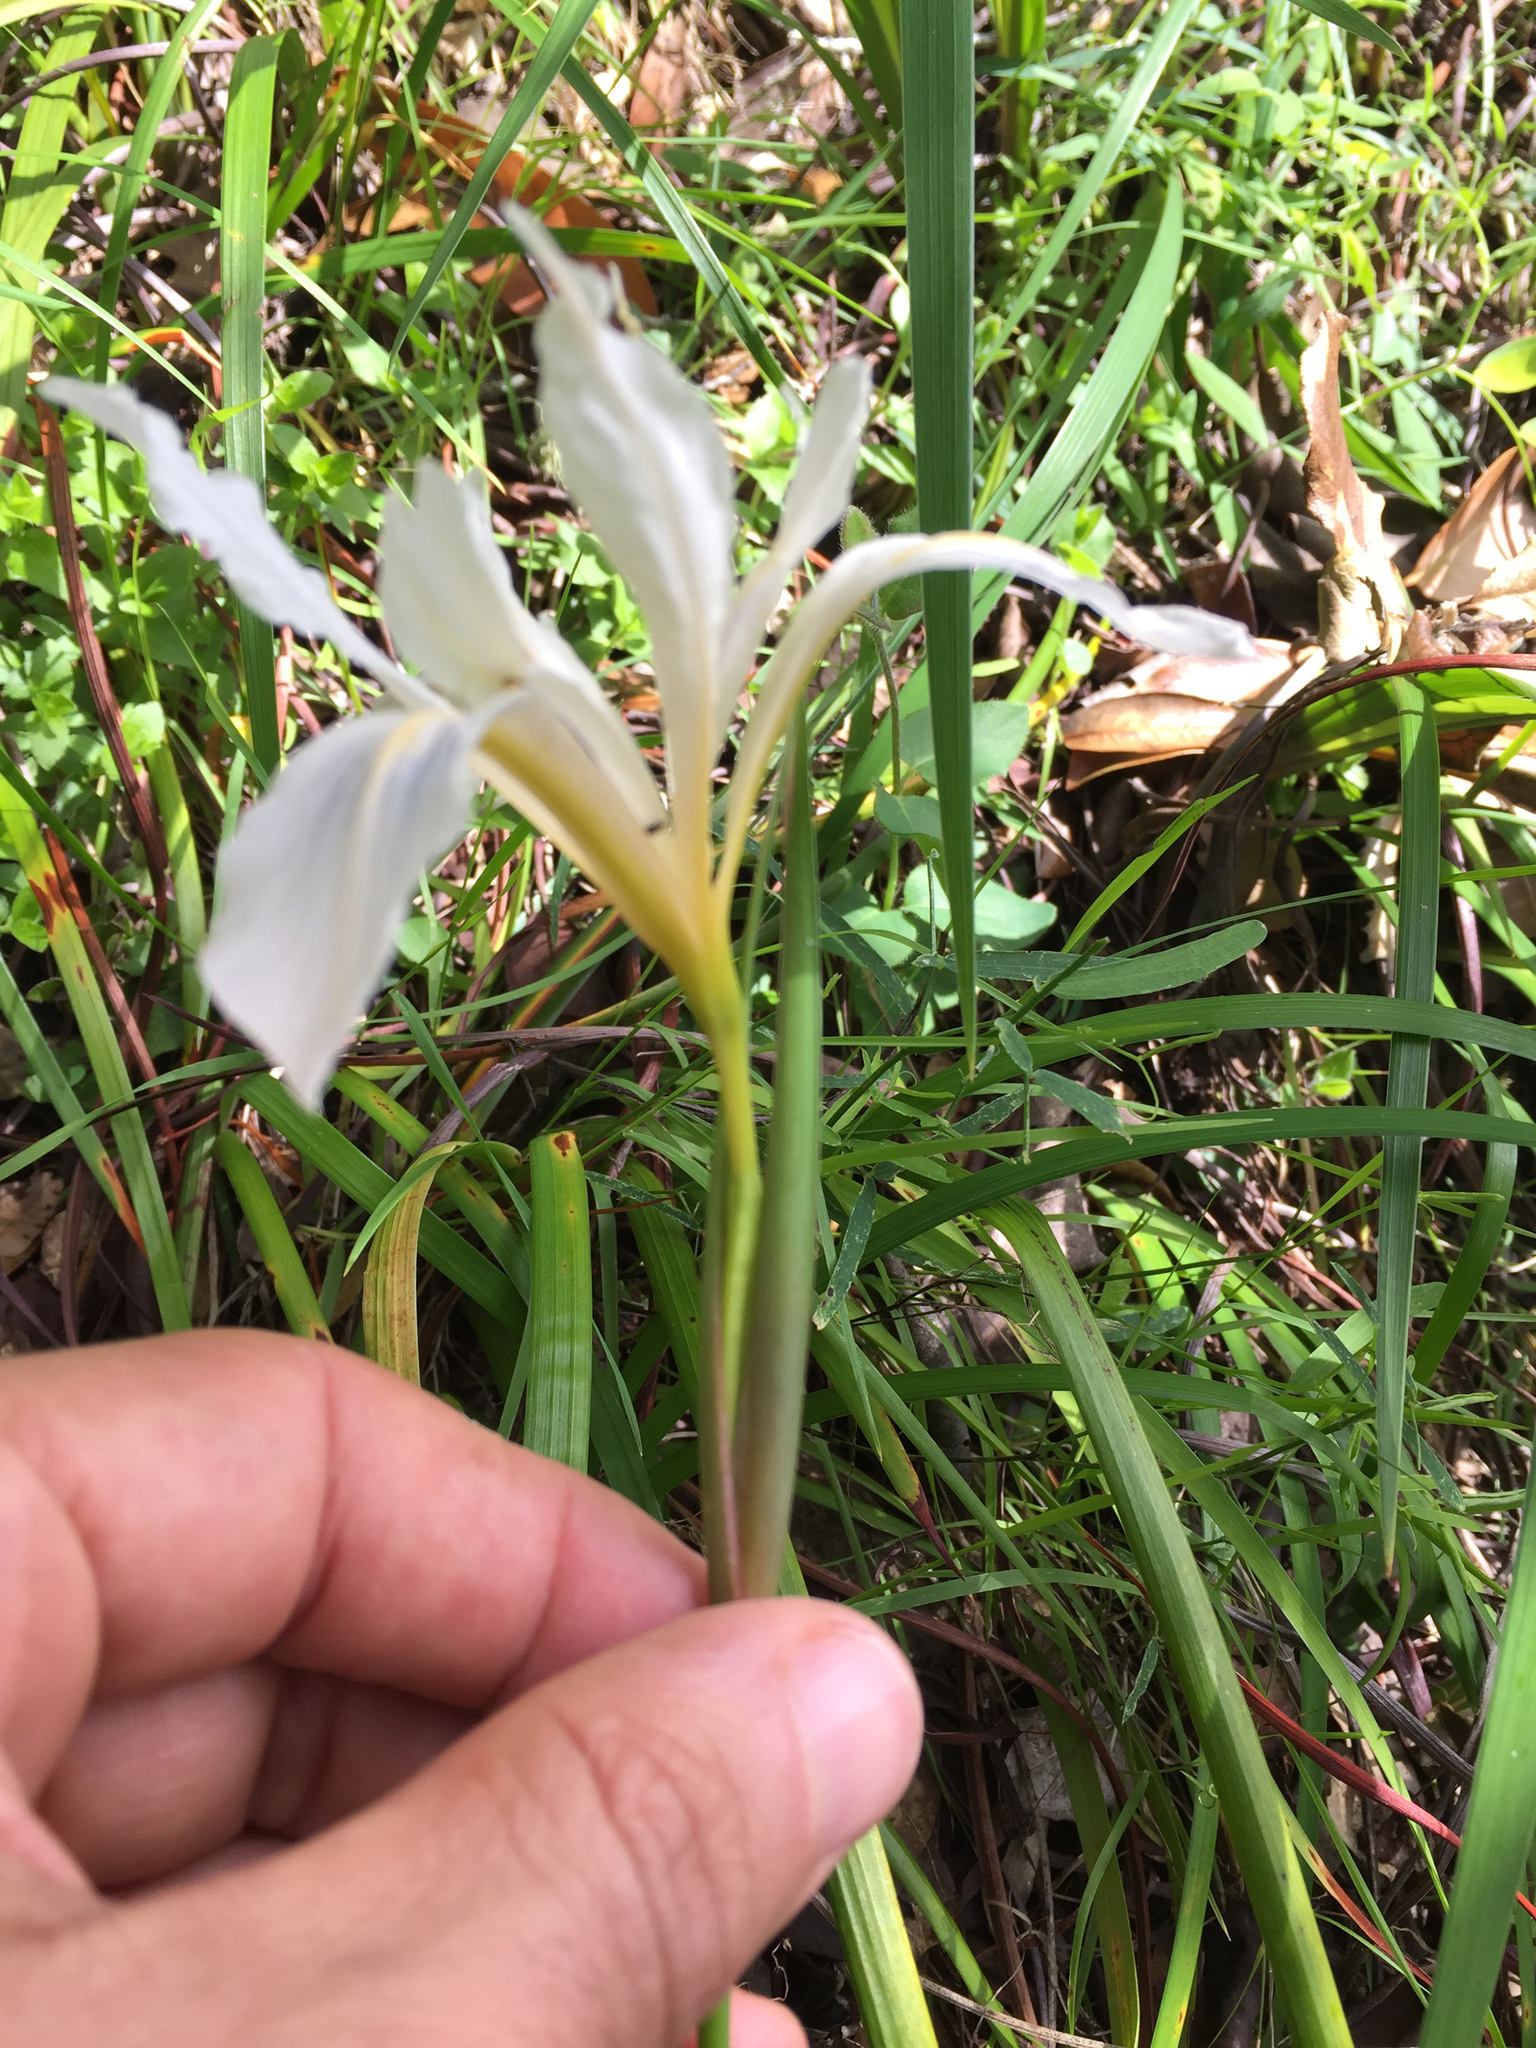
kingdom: Plantae
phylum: Tracheophyta
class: Liliopsida
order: Asparagales
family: Iridaceae
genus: Iris
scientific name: Iris douglasiana
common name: Marin iris
